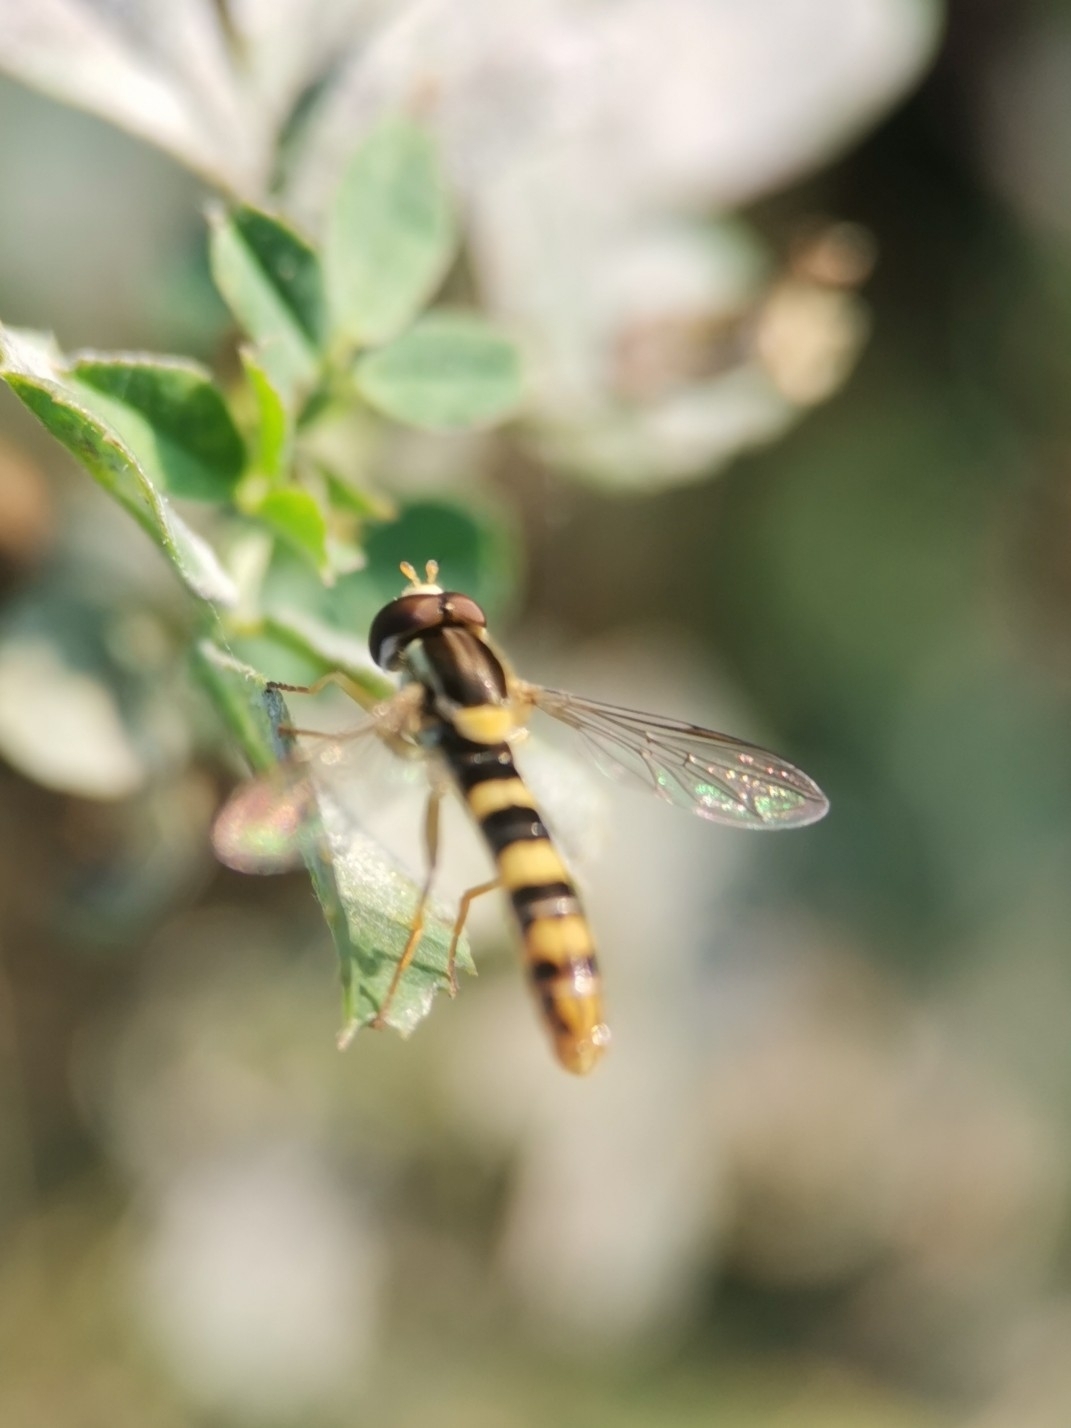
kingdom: Animalia
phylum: Arthropoda
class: Insecta
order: Diptera
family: Syrphidae
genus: Sphaerophoria
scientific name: Sphaerophoria scripta
